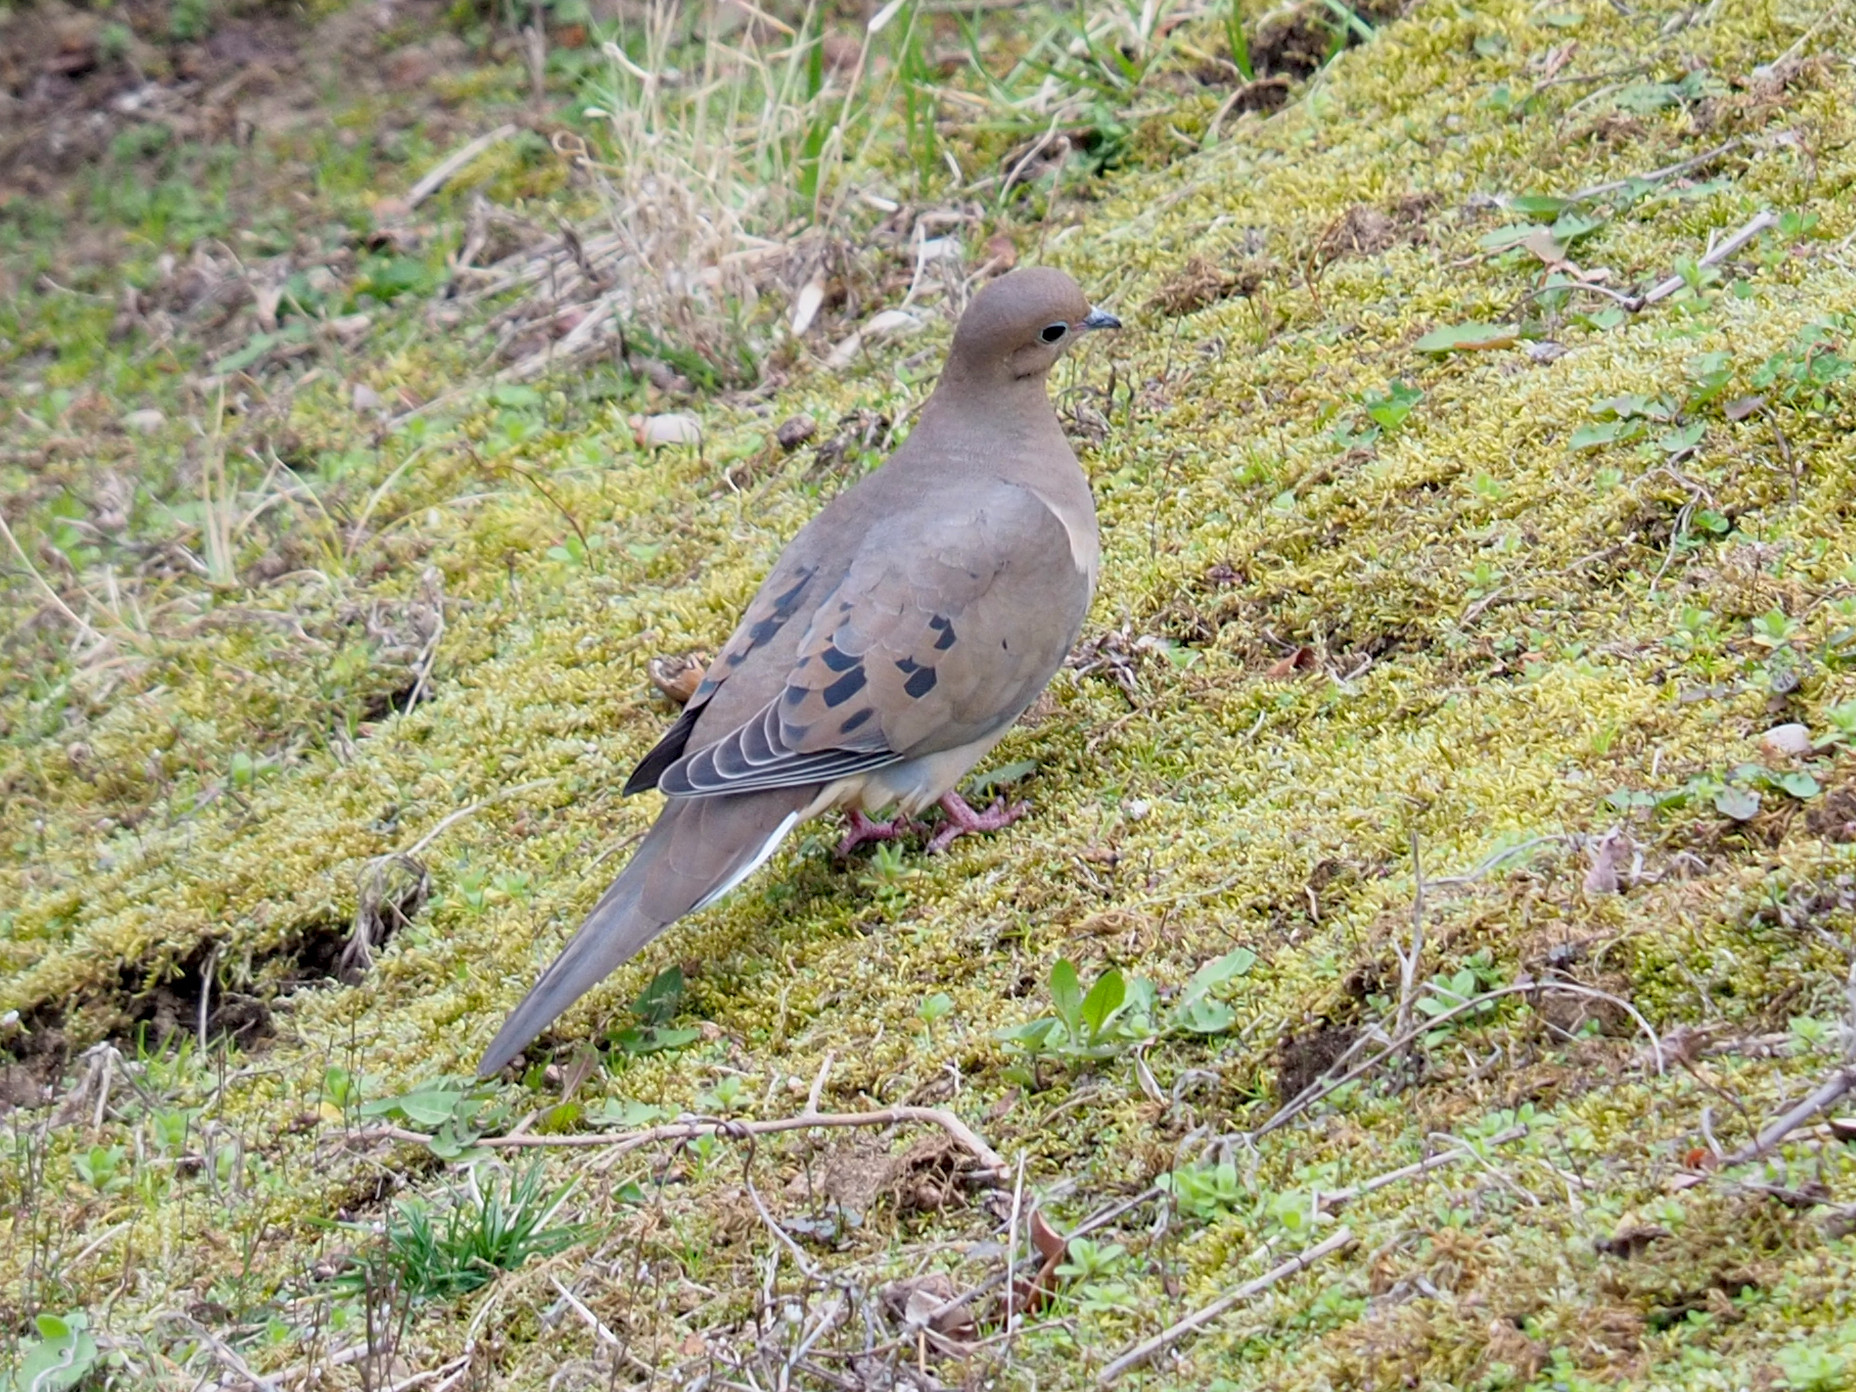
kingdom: Animalia
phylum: Chordata
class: Aves
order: Columbiformes
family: Columbidae
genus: Zenaida
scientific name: Zenaida macroura
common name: Mourning dove
